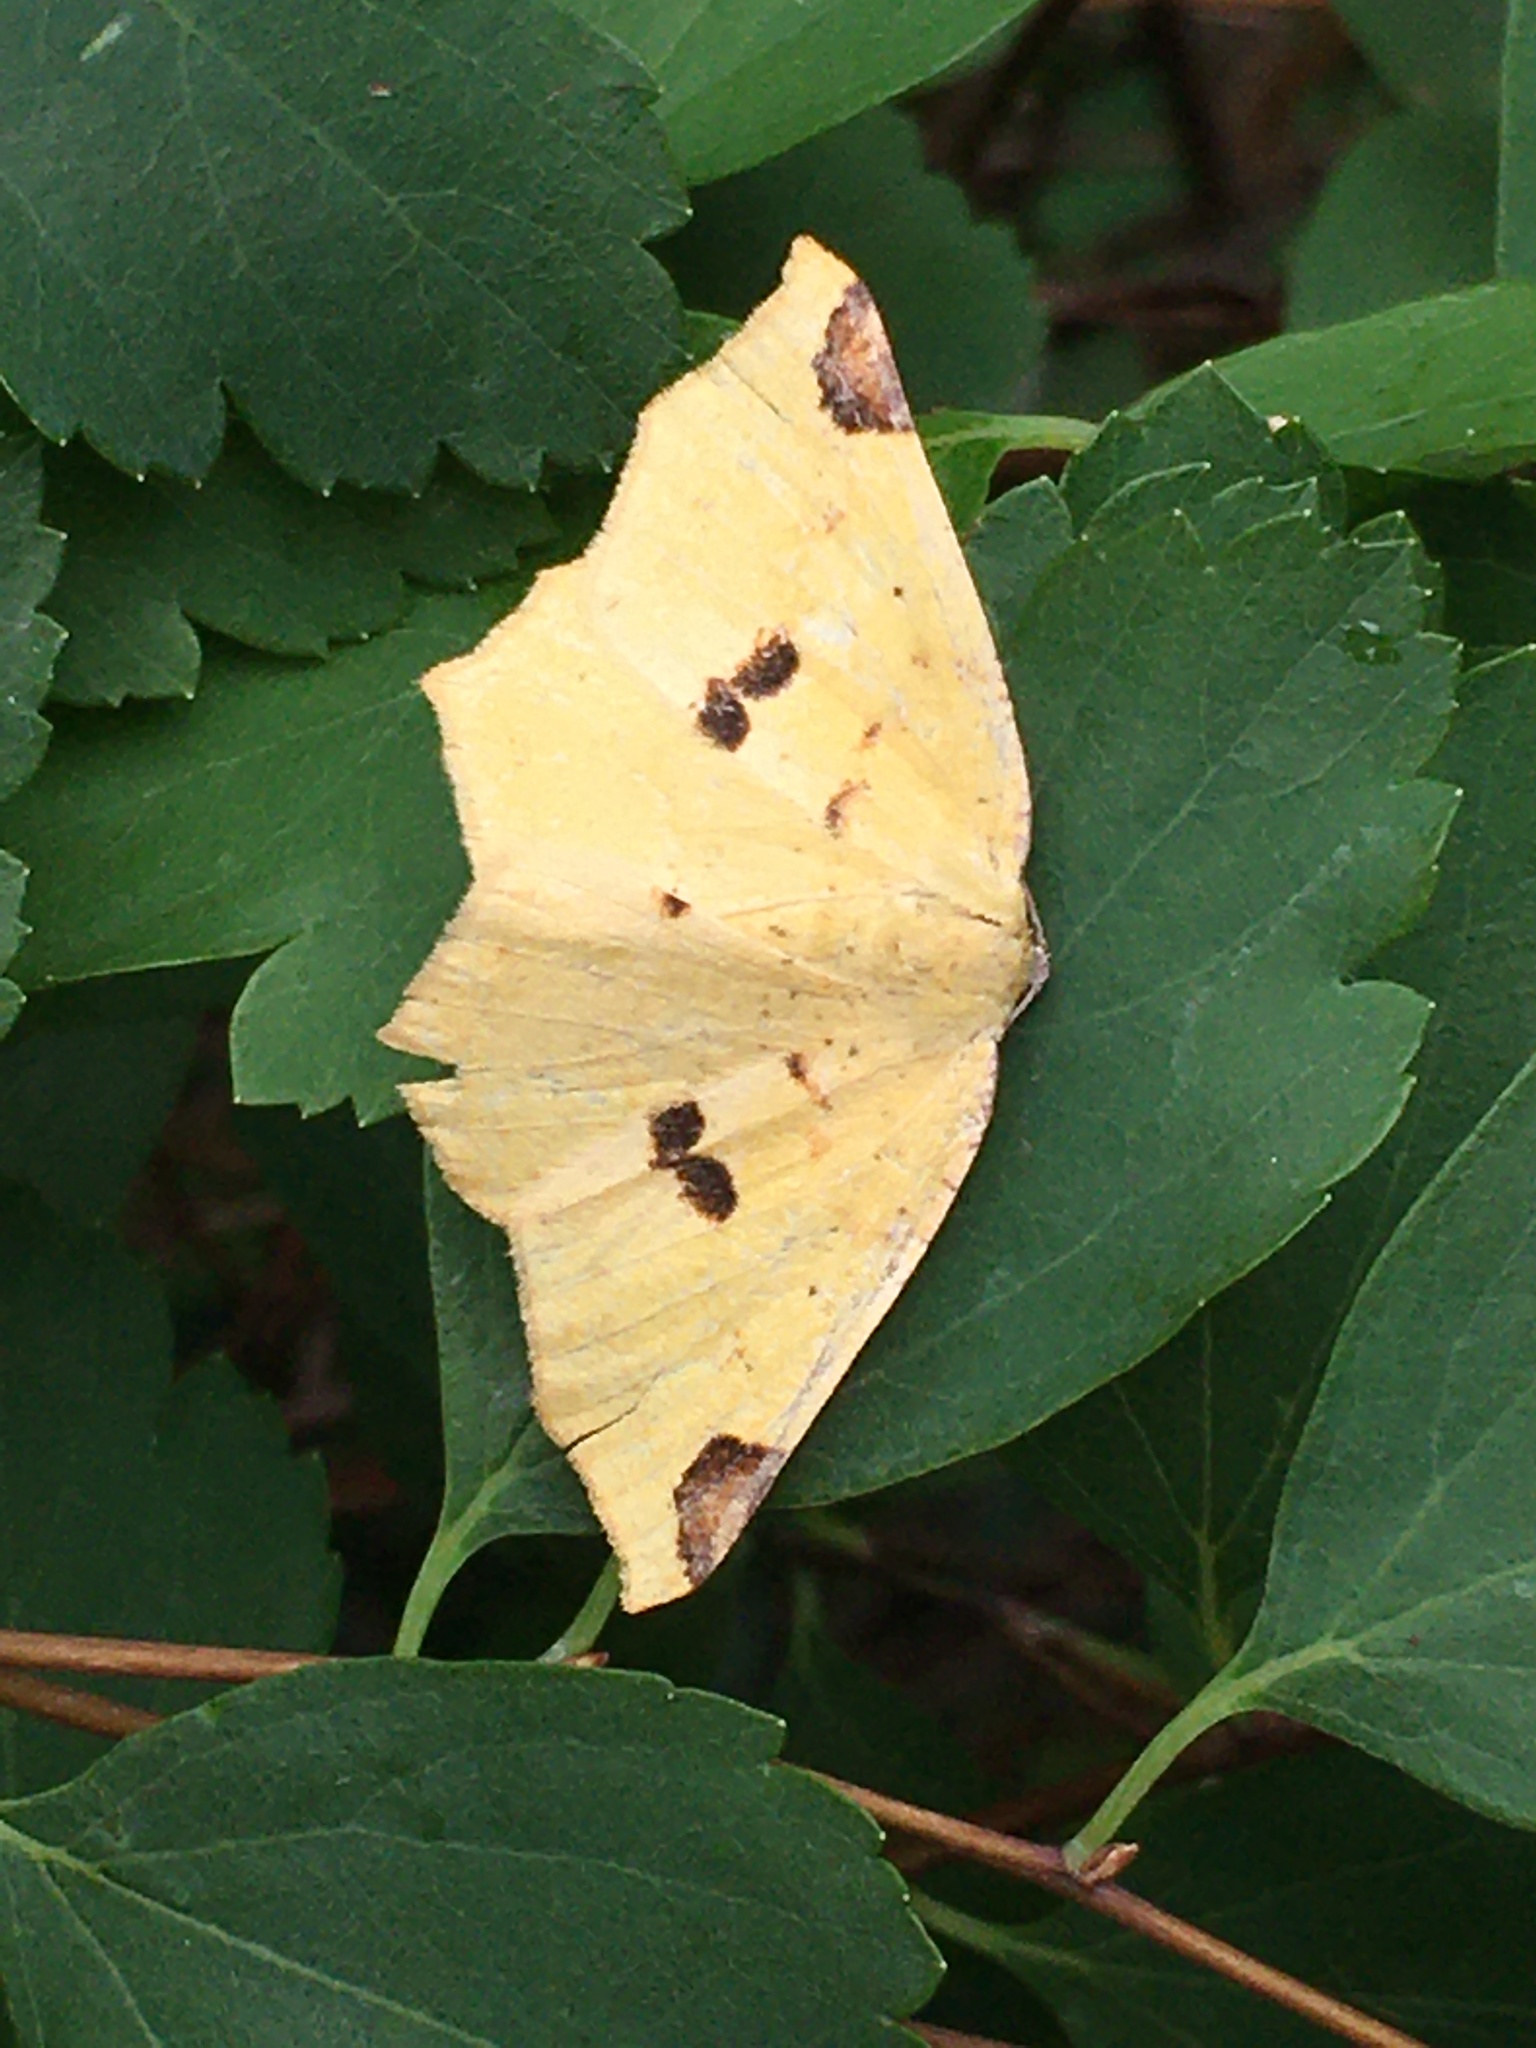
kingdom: Animalia
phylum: Arthropoda
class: Insecta
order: Lepidoptera
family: Geometridae
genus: Antepione
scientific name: Antepione thisoaria
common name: Variable antipione
